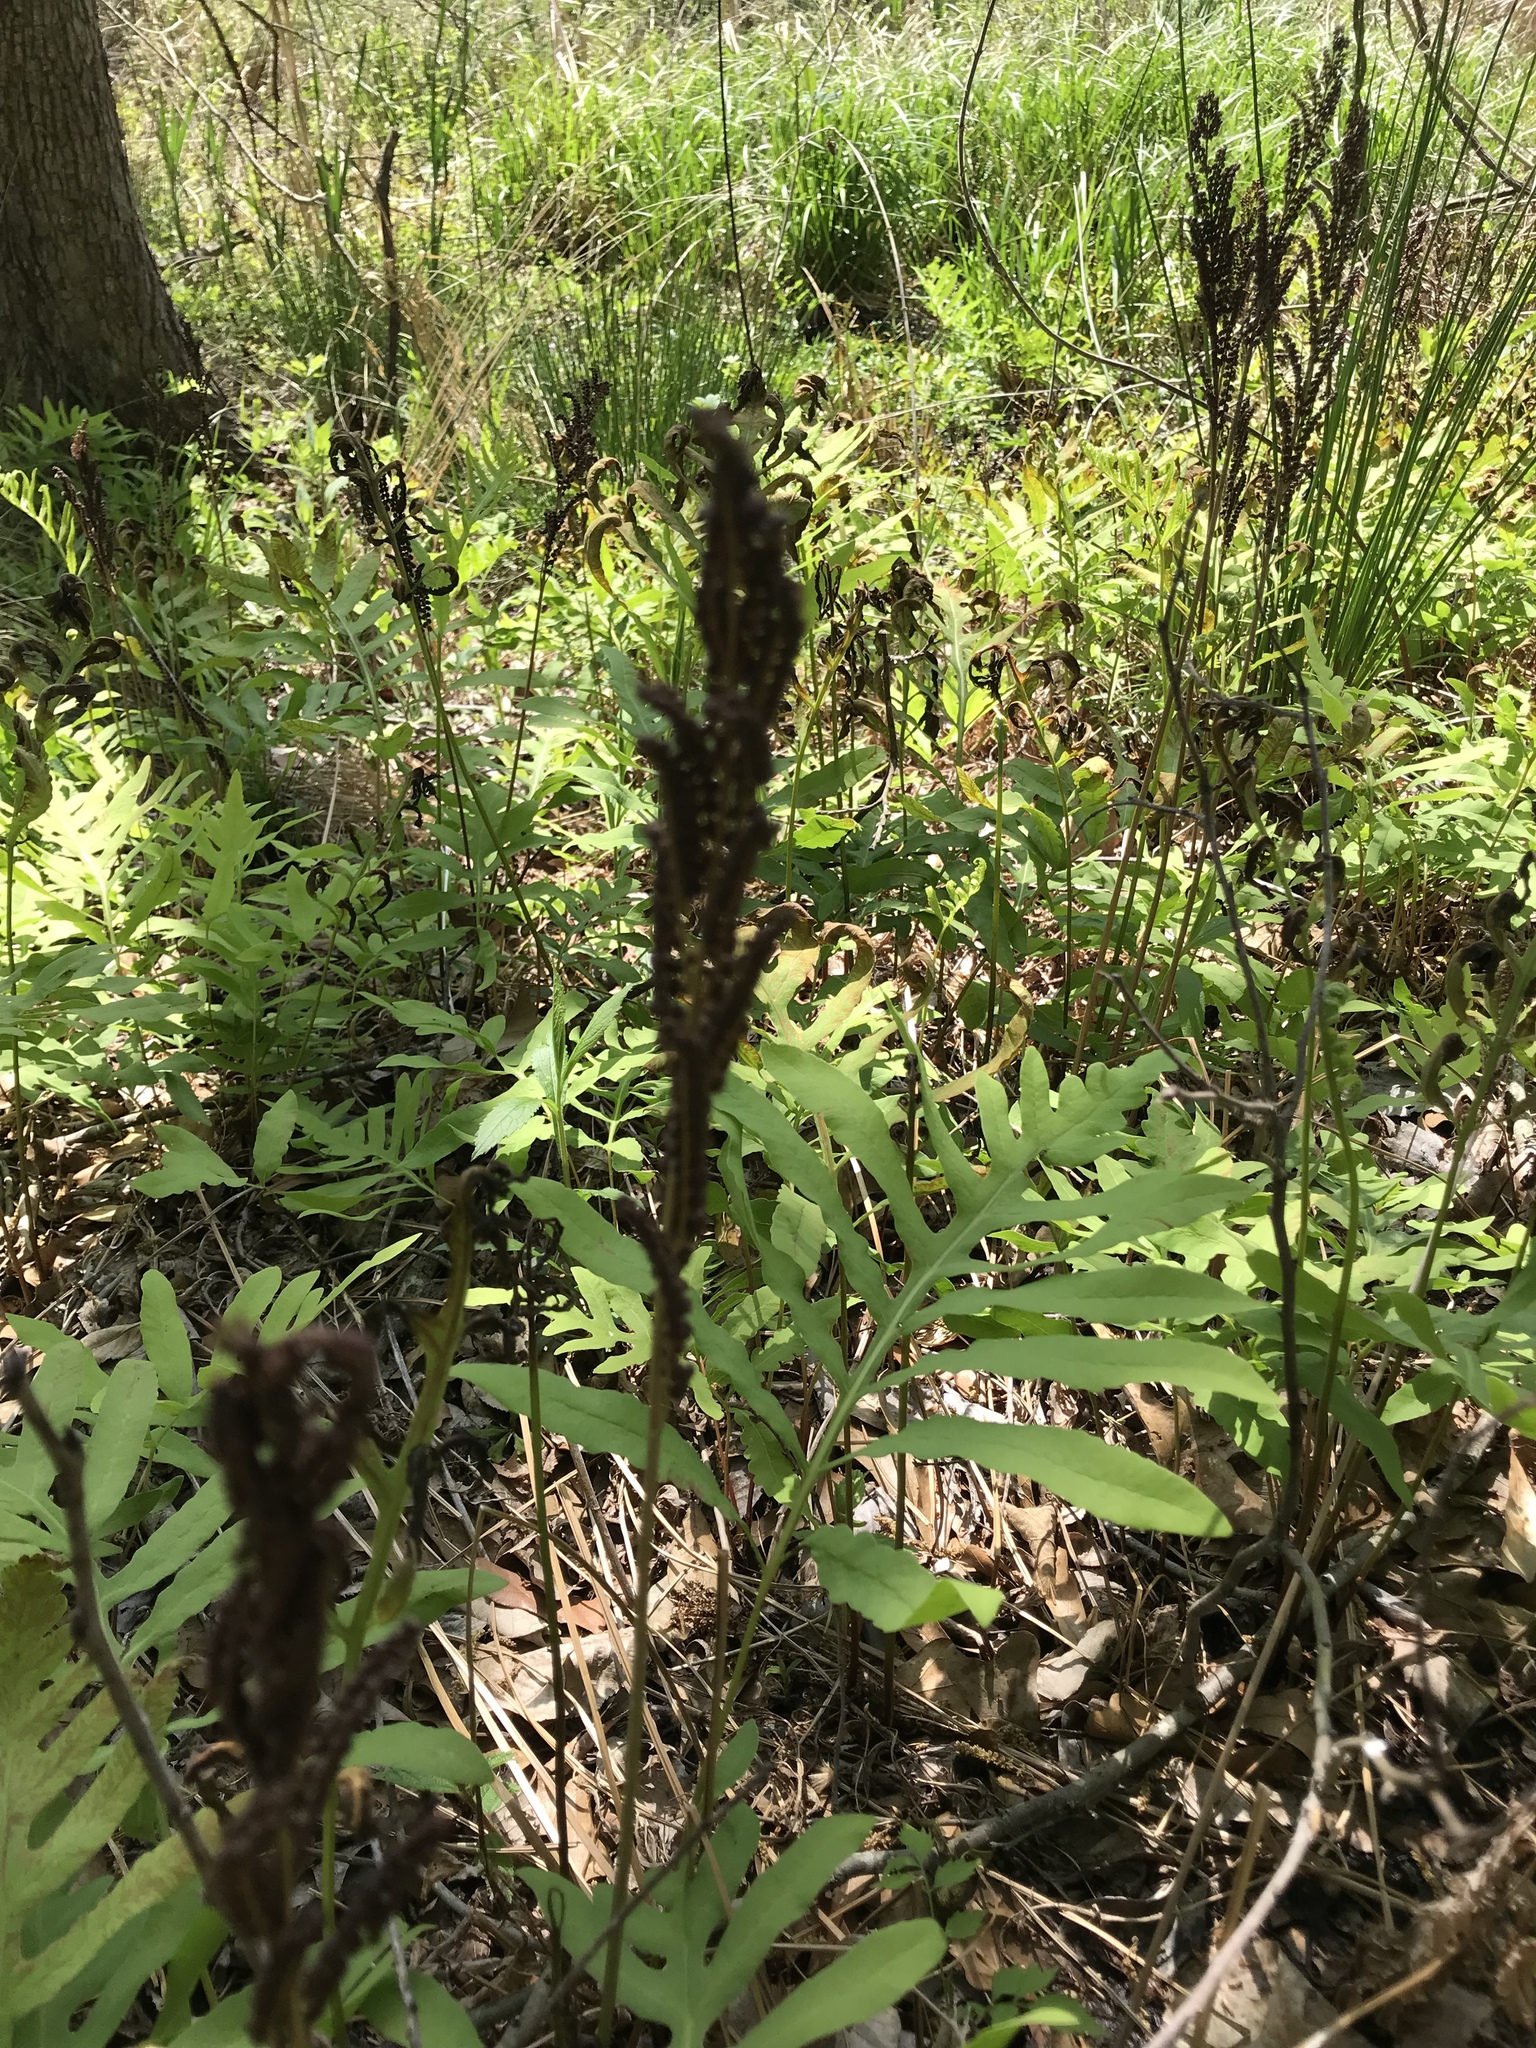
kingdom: Plantae
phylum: Tracheophyta
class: Polypodiopsida
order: Polypodiales
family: Onocleaceae
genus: Onoclea
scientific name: Onoclea sensibilis
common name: Sensitive fern
